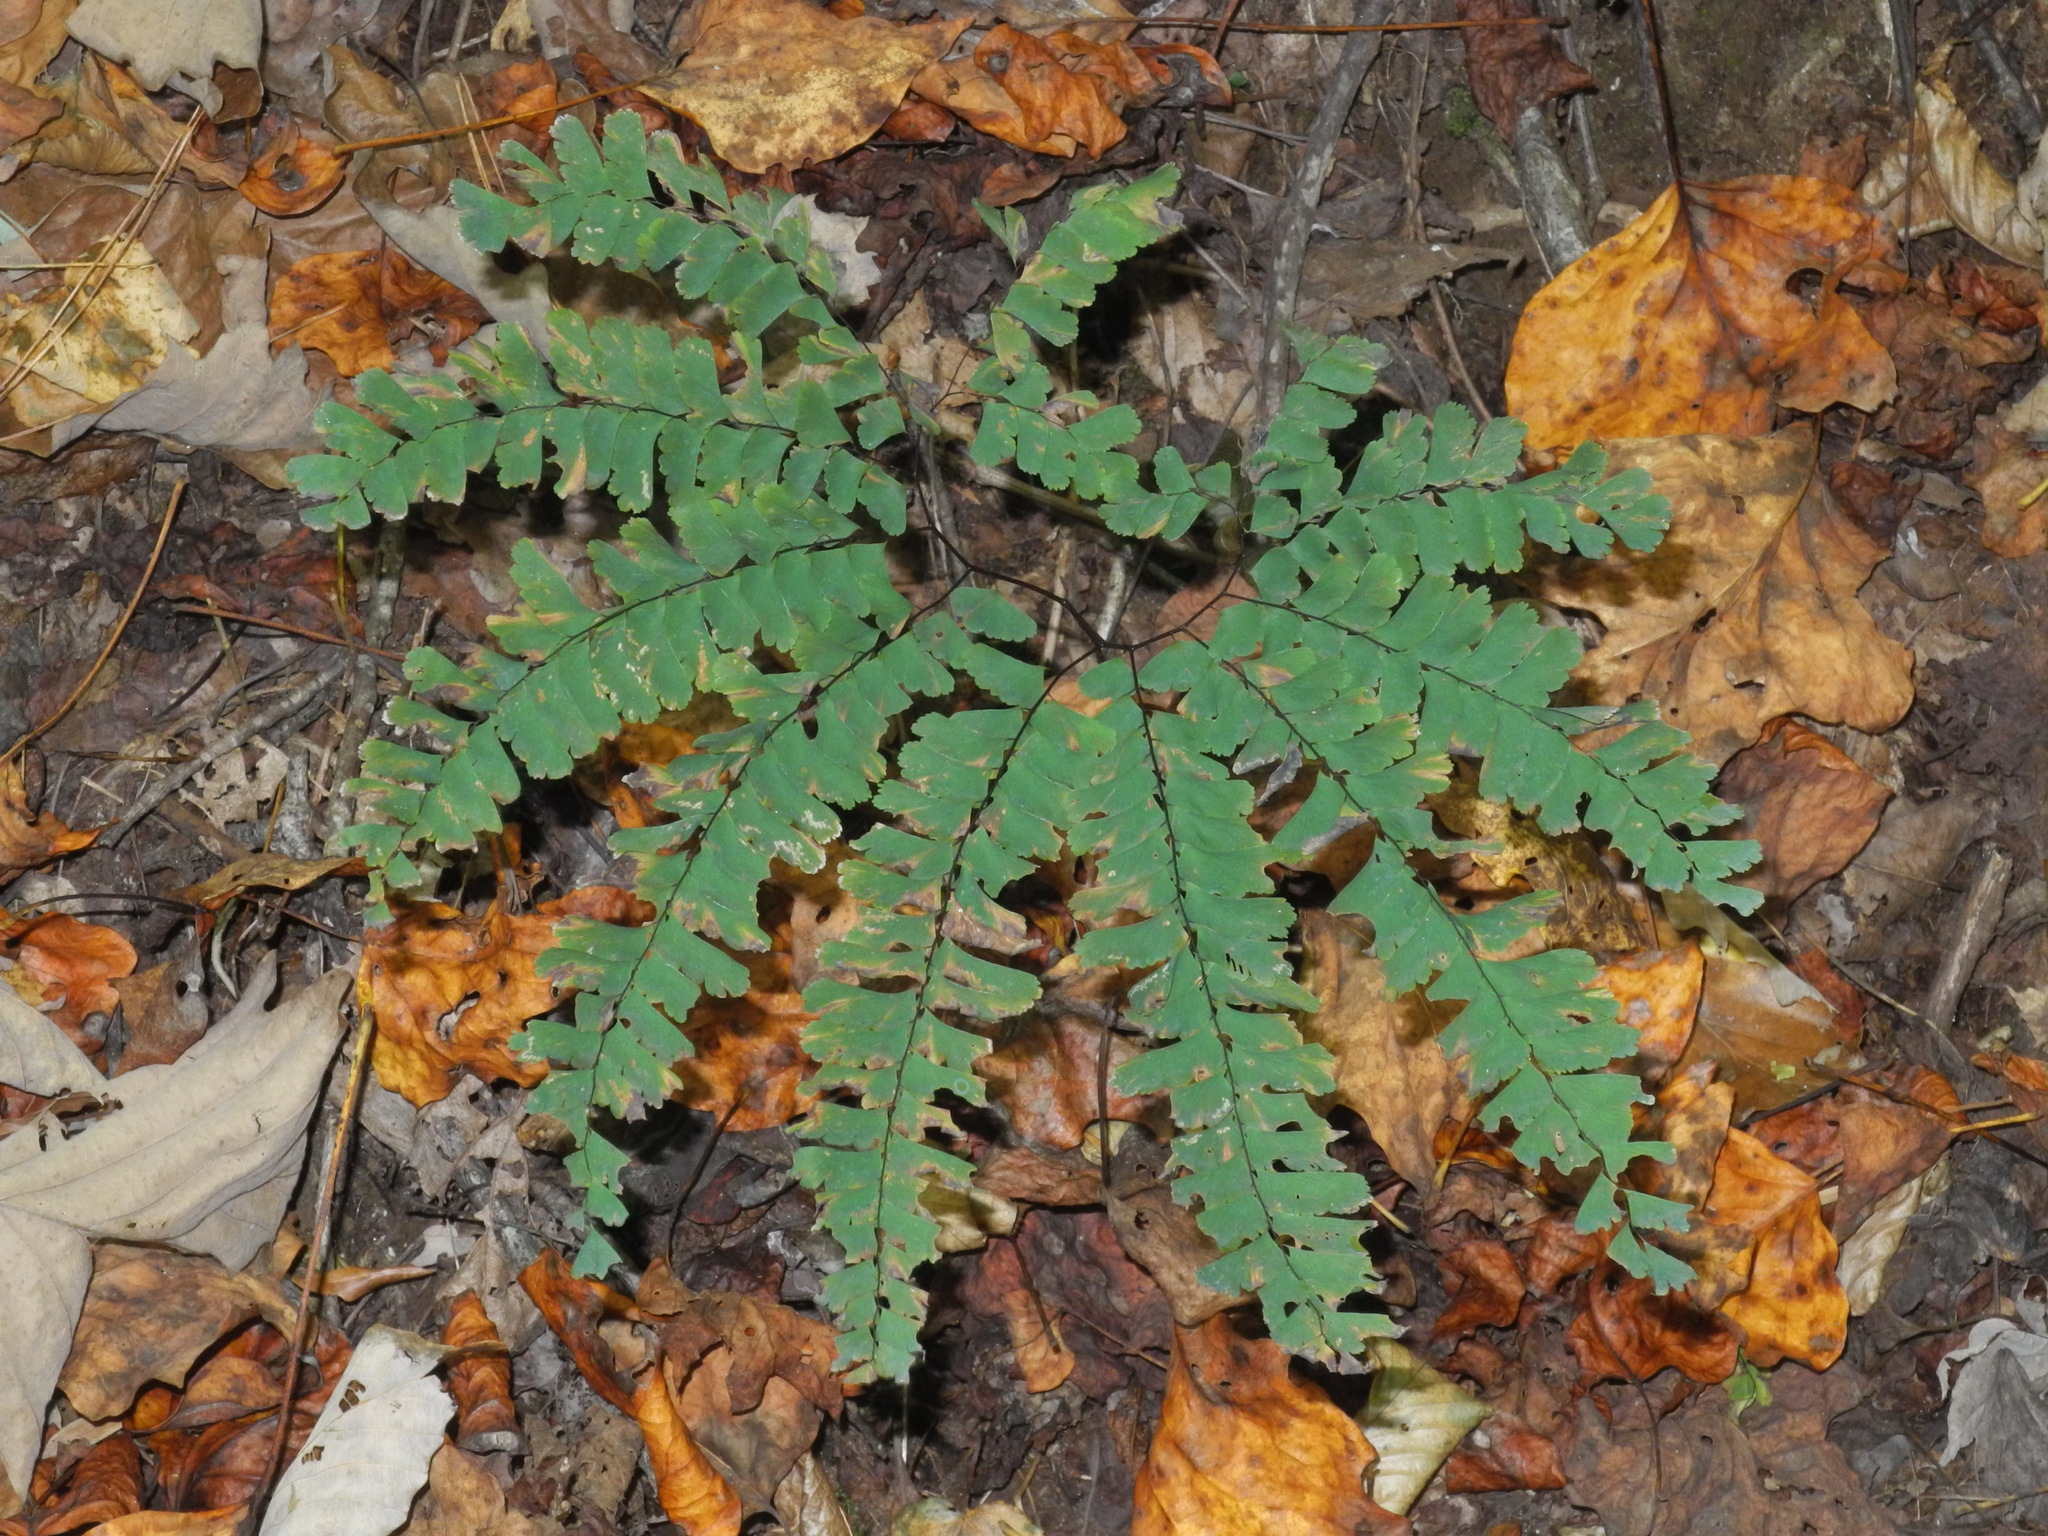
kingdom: Plantae
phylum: Tracheophyta
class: Polypodiopsida
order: Polypodiales
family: Pteridaceae
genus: Adiantum
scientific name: Adiantum pedatum
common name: Five-finger fern
